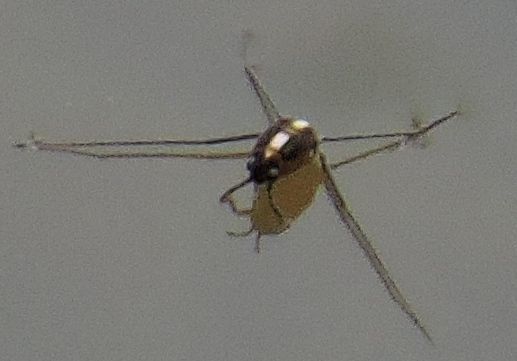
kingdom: Animalia
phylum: Arthropoda
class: Insecta
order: Hemiptera
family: Gerridae
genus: Metrobates
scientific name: Metrobates hesperius
